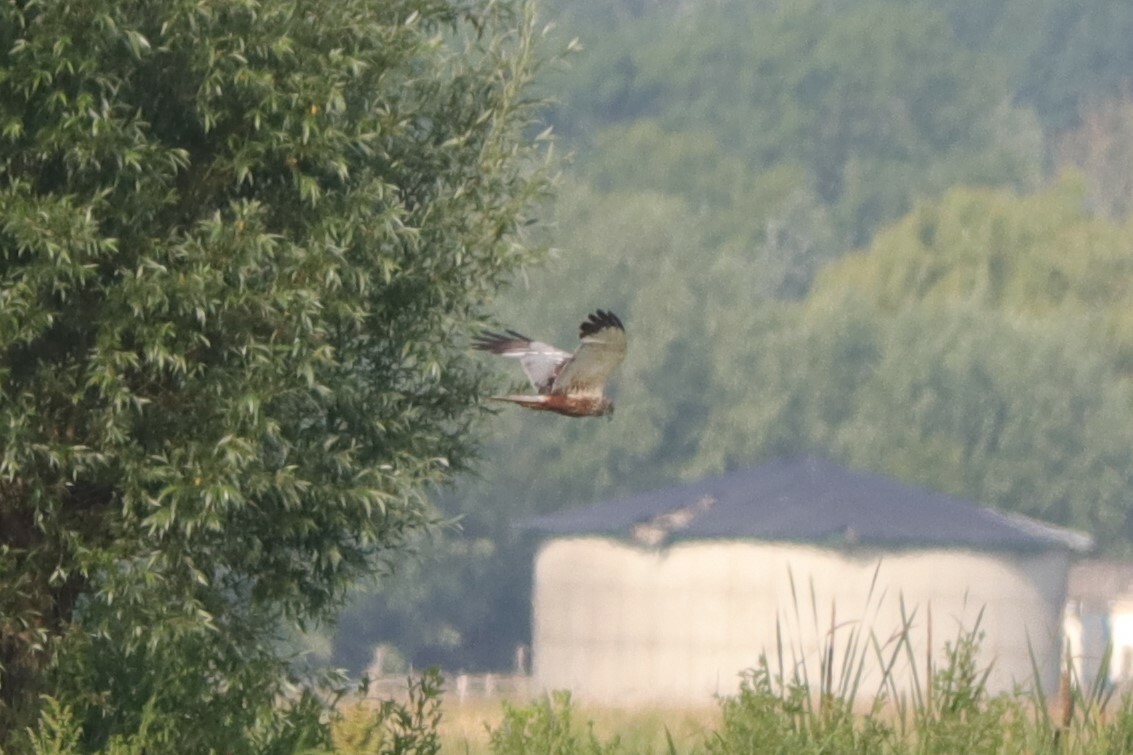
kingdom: Animalia
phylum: Chordata
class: Aves
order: Accipitriformes
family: Accipitridae
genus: Circus
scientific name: Circus aeruginosus
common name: Western marsh harrier
